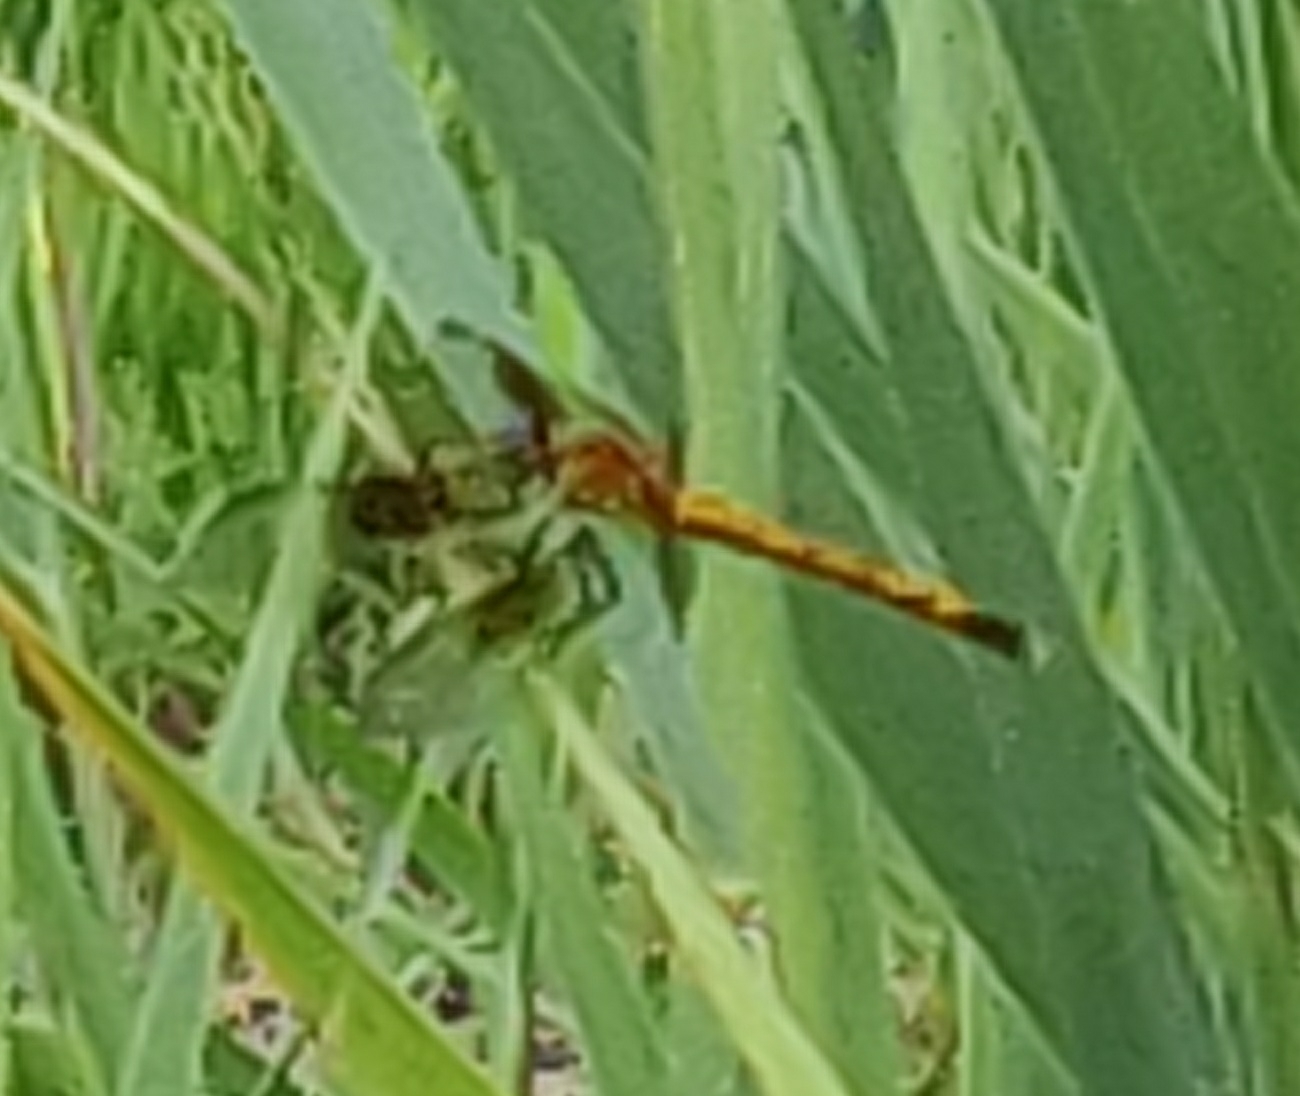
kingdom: Animalia
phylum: Arthropoda
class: Insecta
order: Odonata
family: Libellulidae
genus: Erythrodiplax
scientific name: Erythrodiplax berenice
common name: Seaside dragonlet
